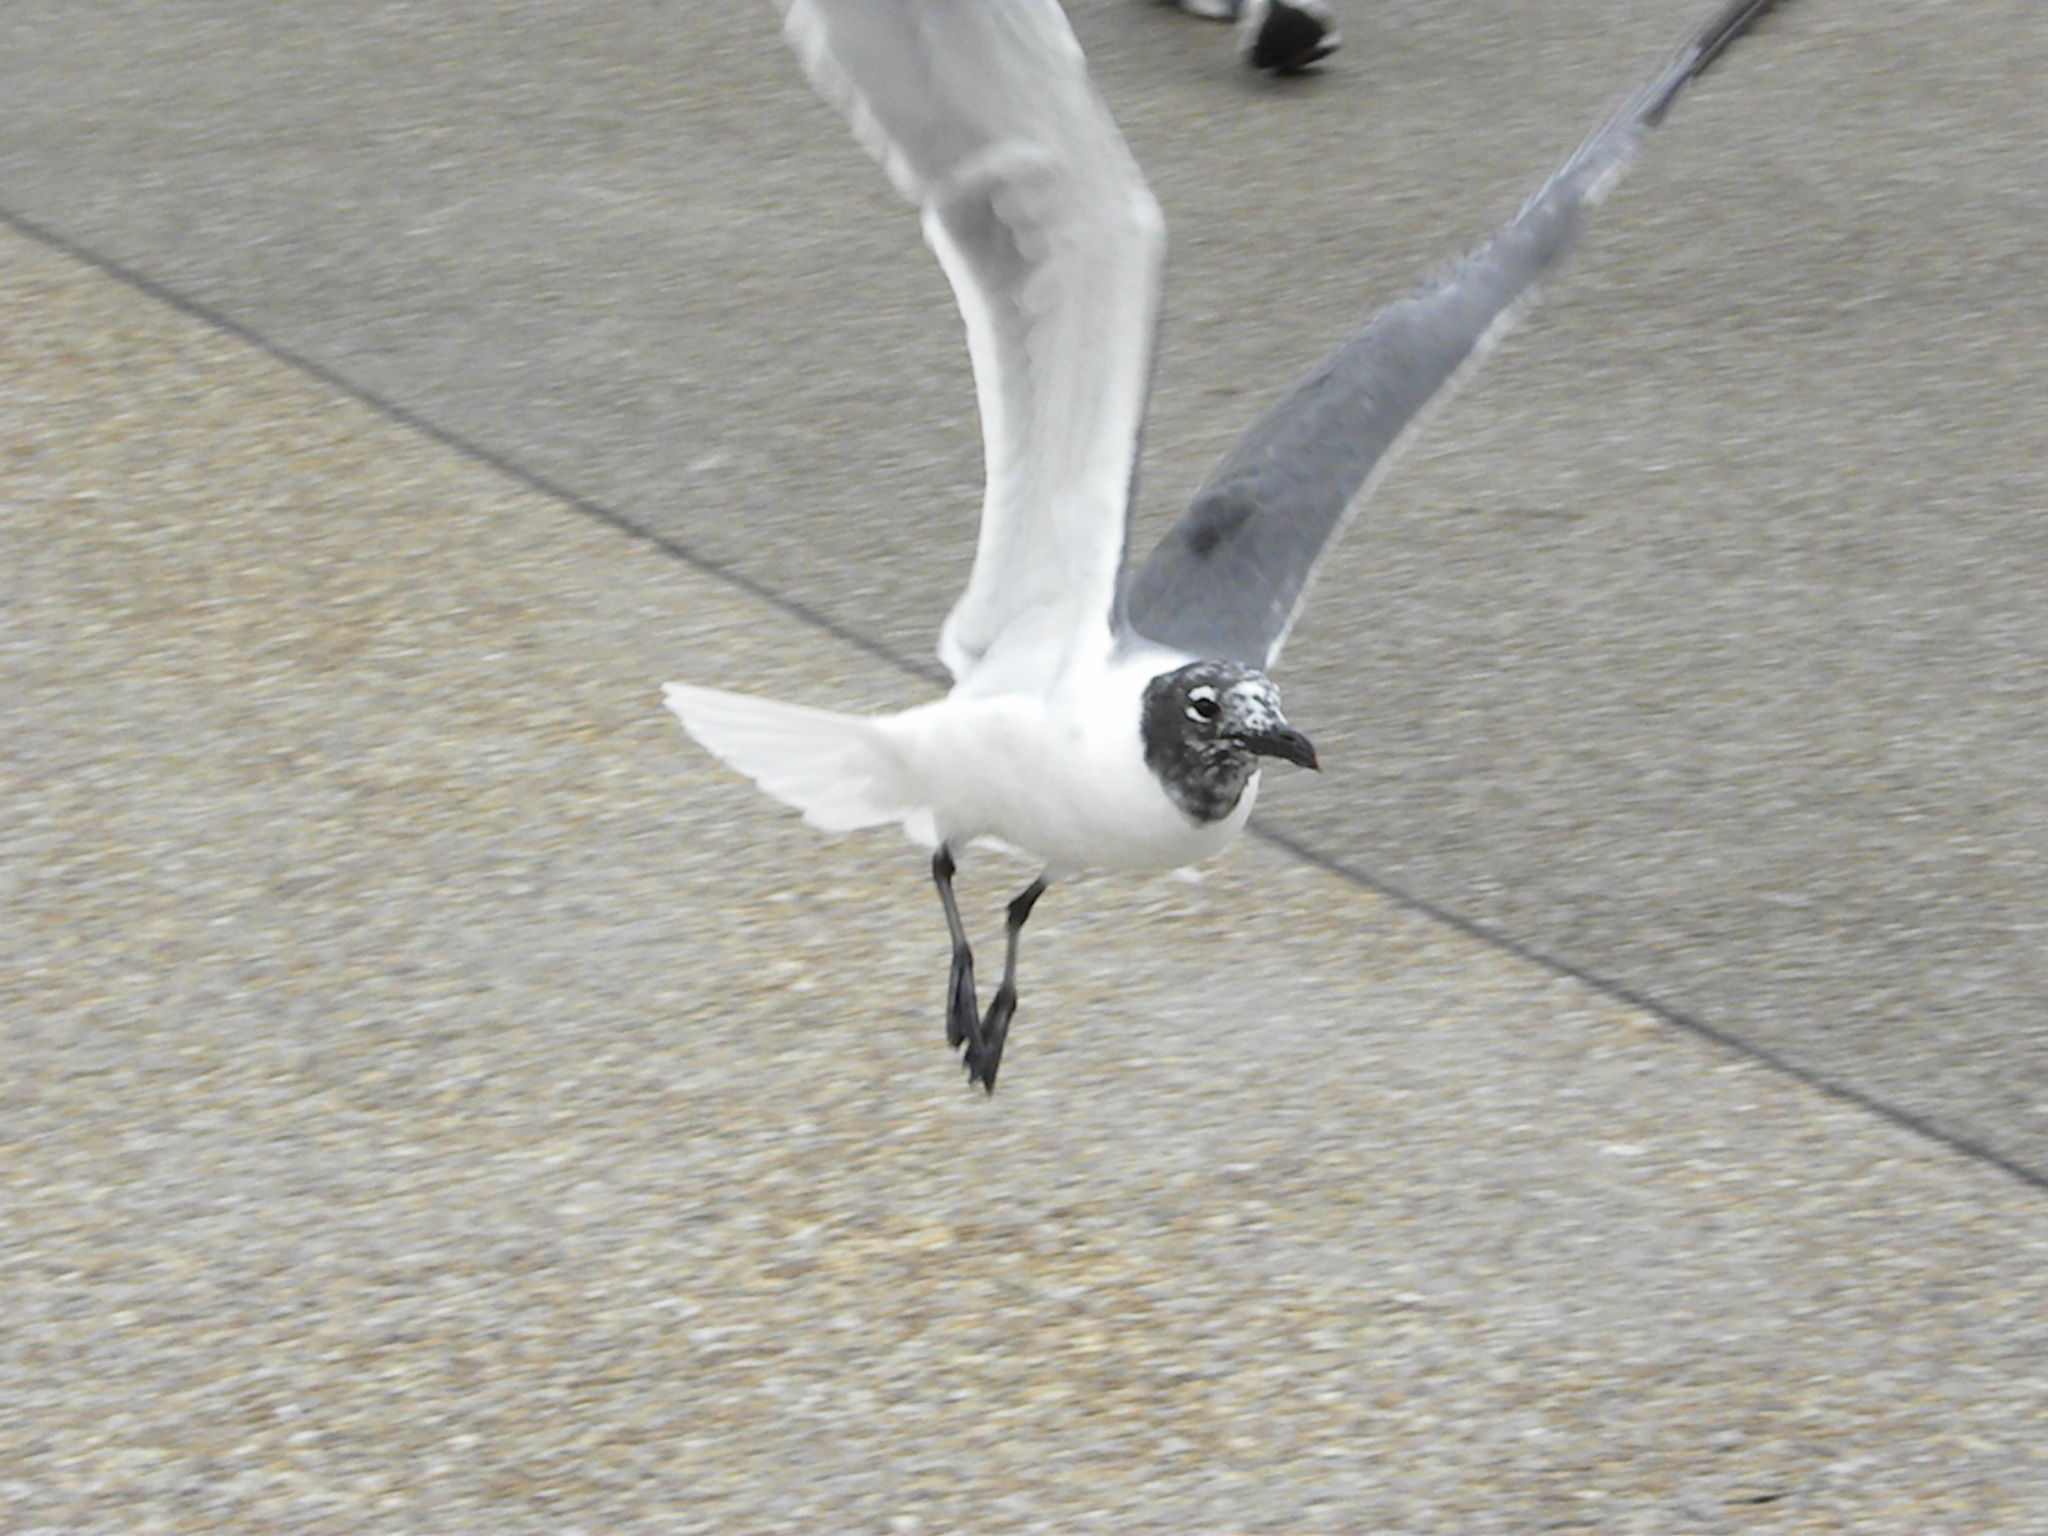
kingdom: Animalia
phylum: Chordata
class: Aves
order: Charadriiformes
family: Laridae
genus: Leucophaeus
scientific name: Leucophaeus atricilla
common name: Laughing gull
